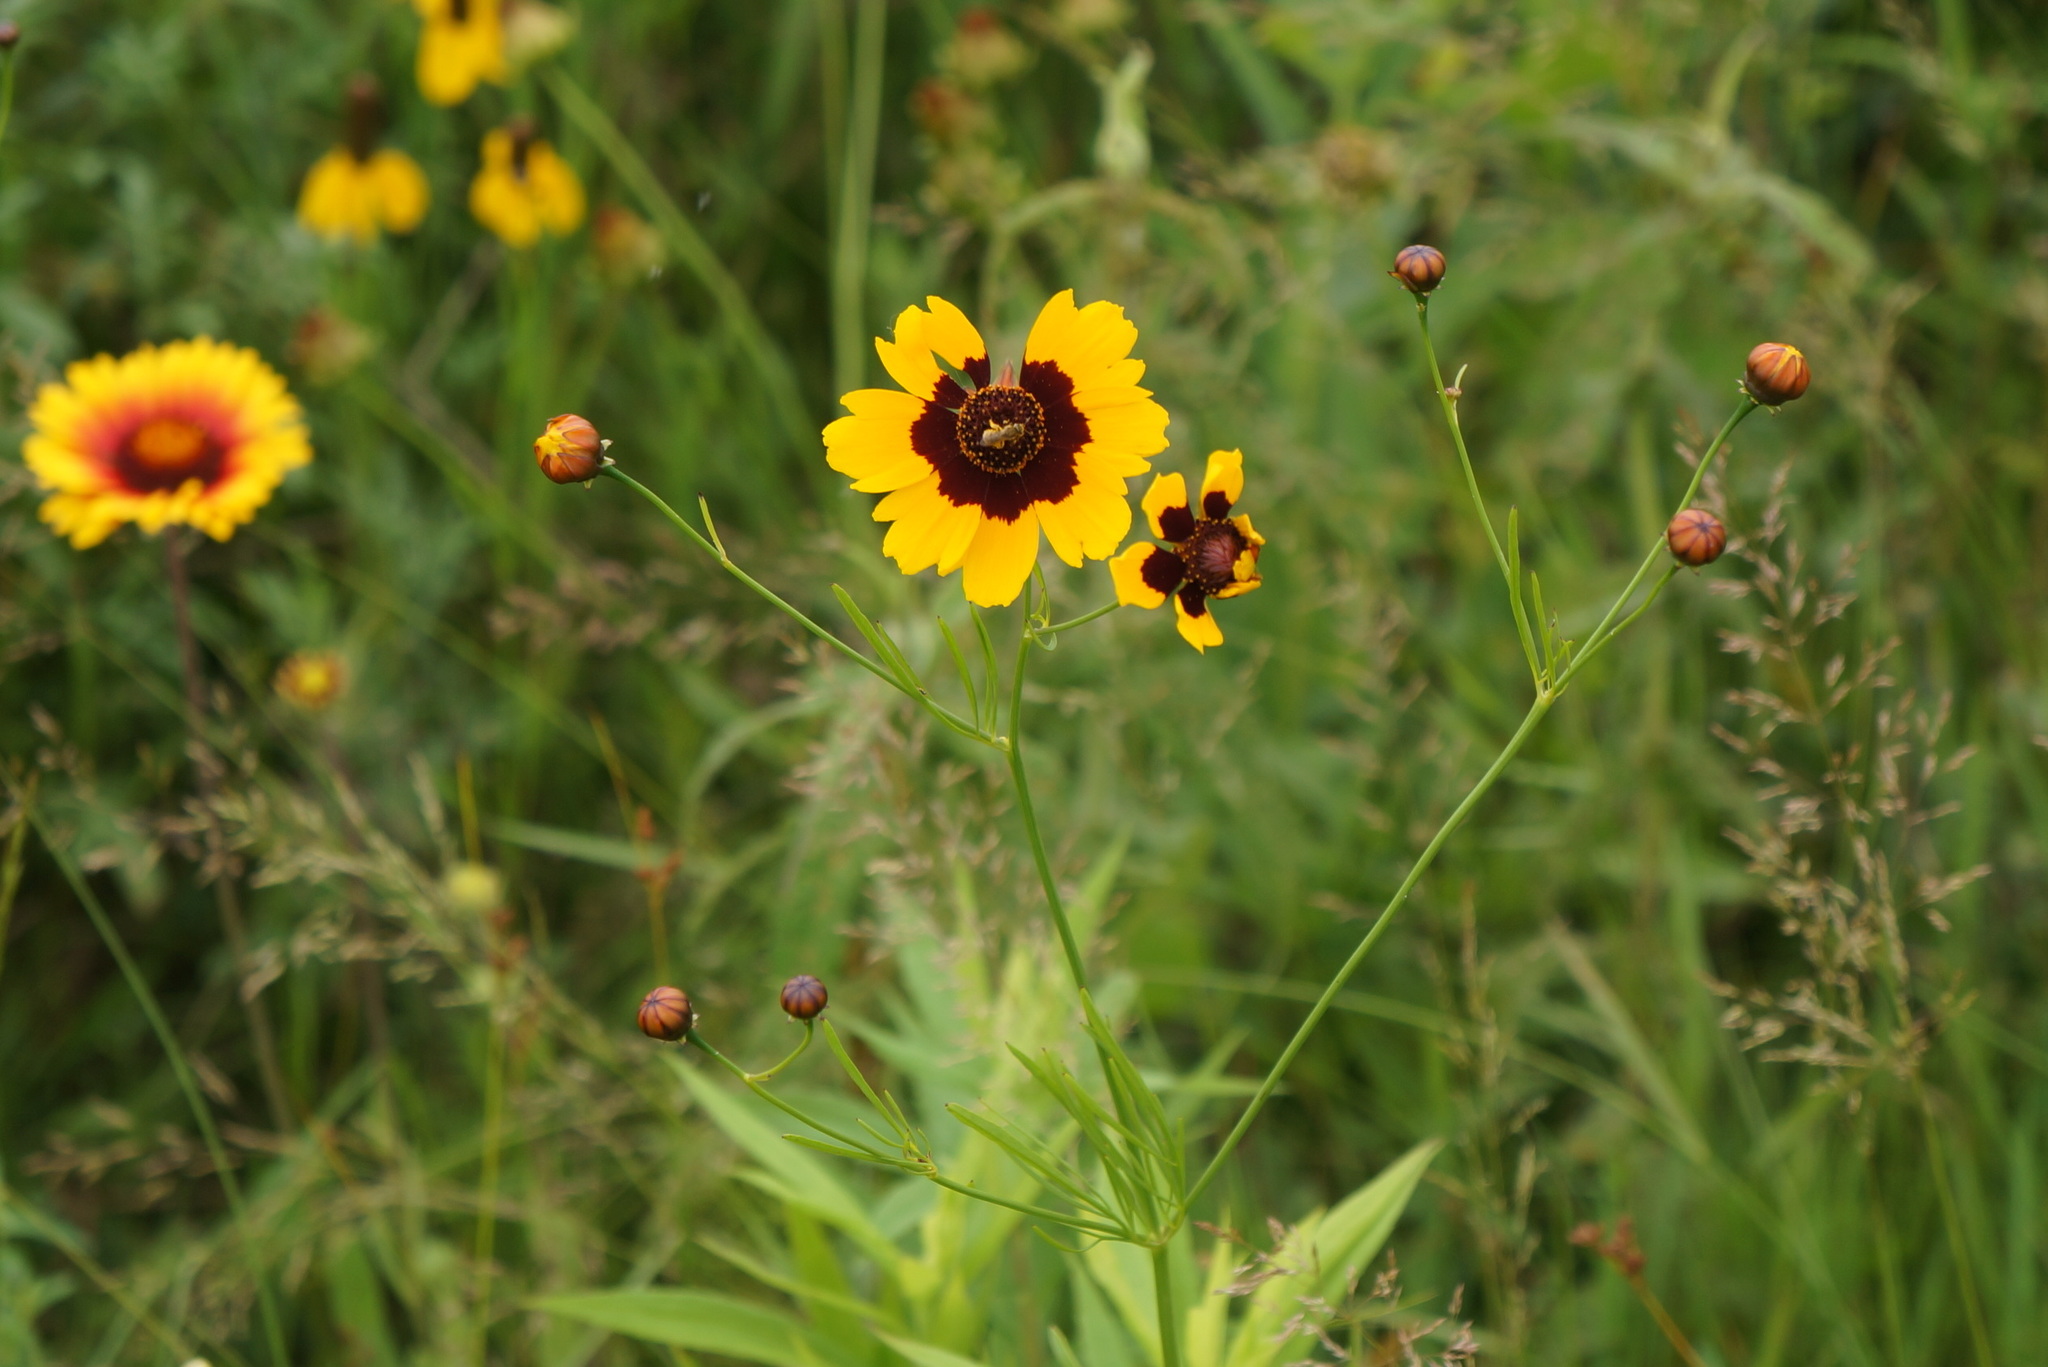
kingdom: Plantae
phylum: Tracheophyta
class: Magnoliopsida
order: Asterales
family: Asteraceae
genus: Coreopsis
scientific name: Coreopsis tinctoria
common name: Garden tickseed
